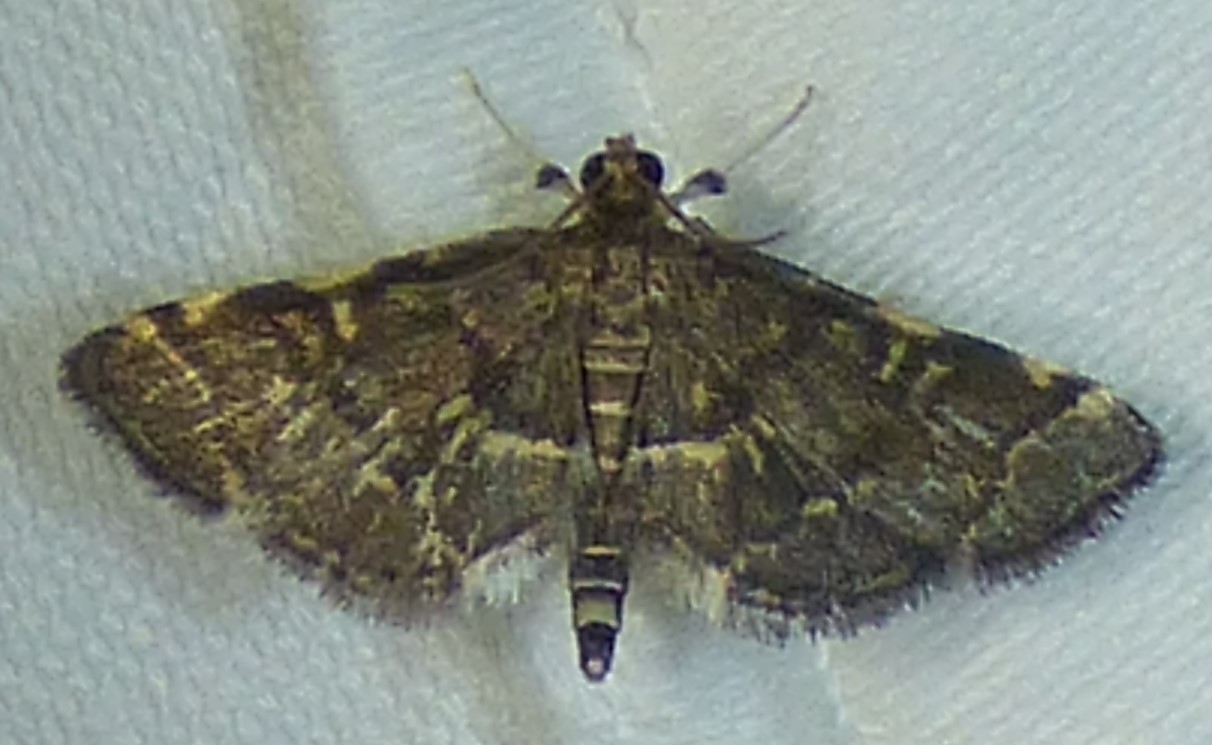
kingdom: Animalia
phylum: Arthropoda
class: Insecta
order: Lepidoptera
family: Crambidae
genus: Anageshna
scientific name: Anageshna primordialis
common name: Yellow-spotted webworm moth
